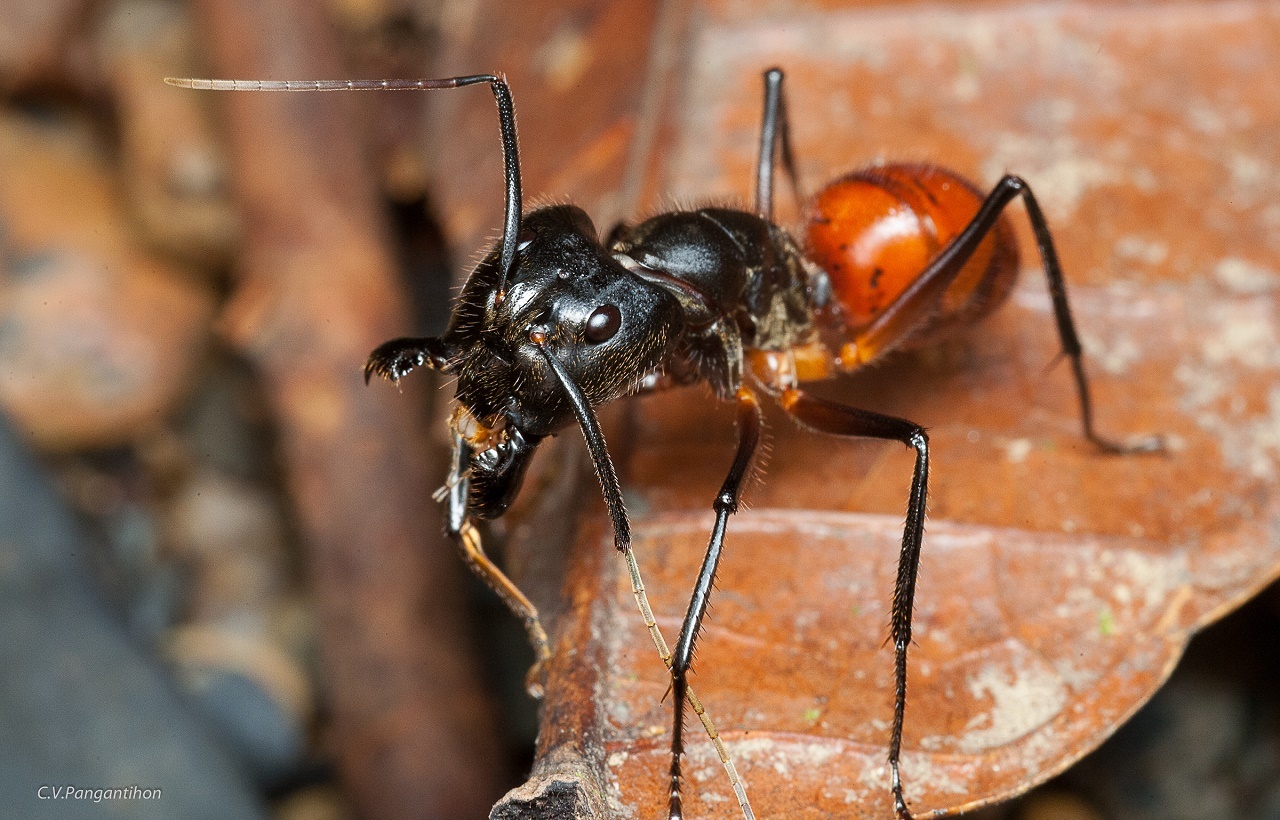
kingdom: Animalia
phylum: Arthropoda
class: Insecta
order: Hymenoptera
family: Formicidae
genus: Dinomyrmex
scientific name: Dinomyrmex
